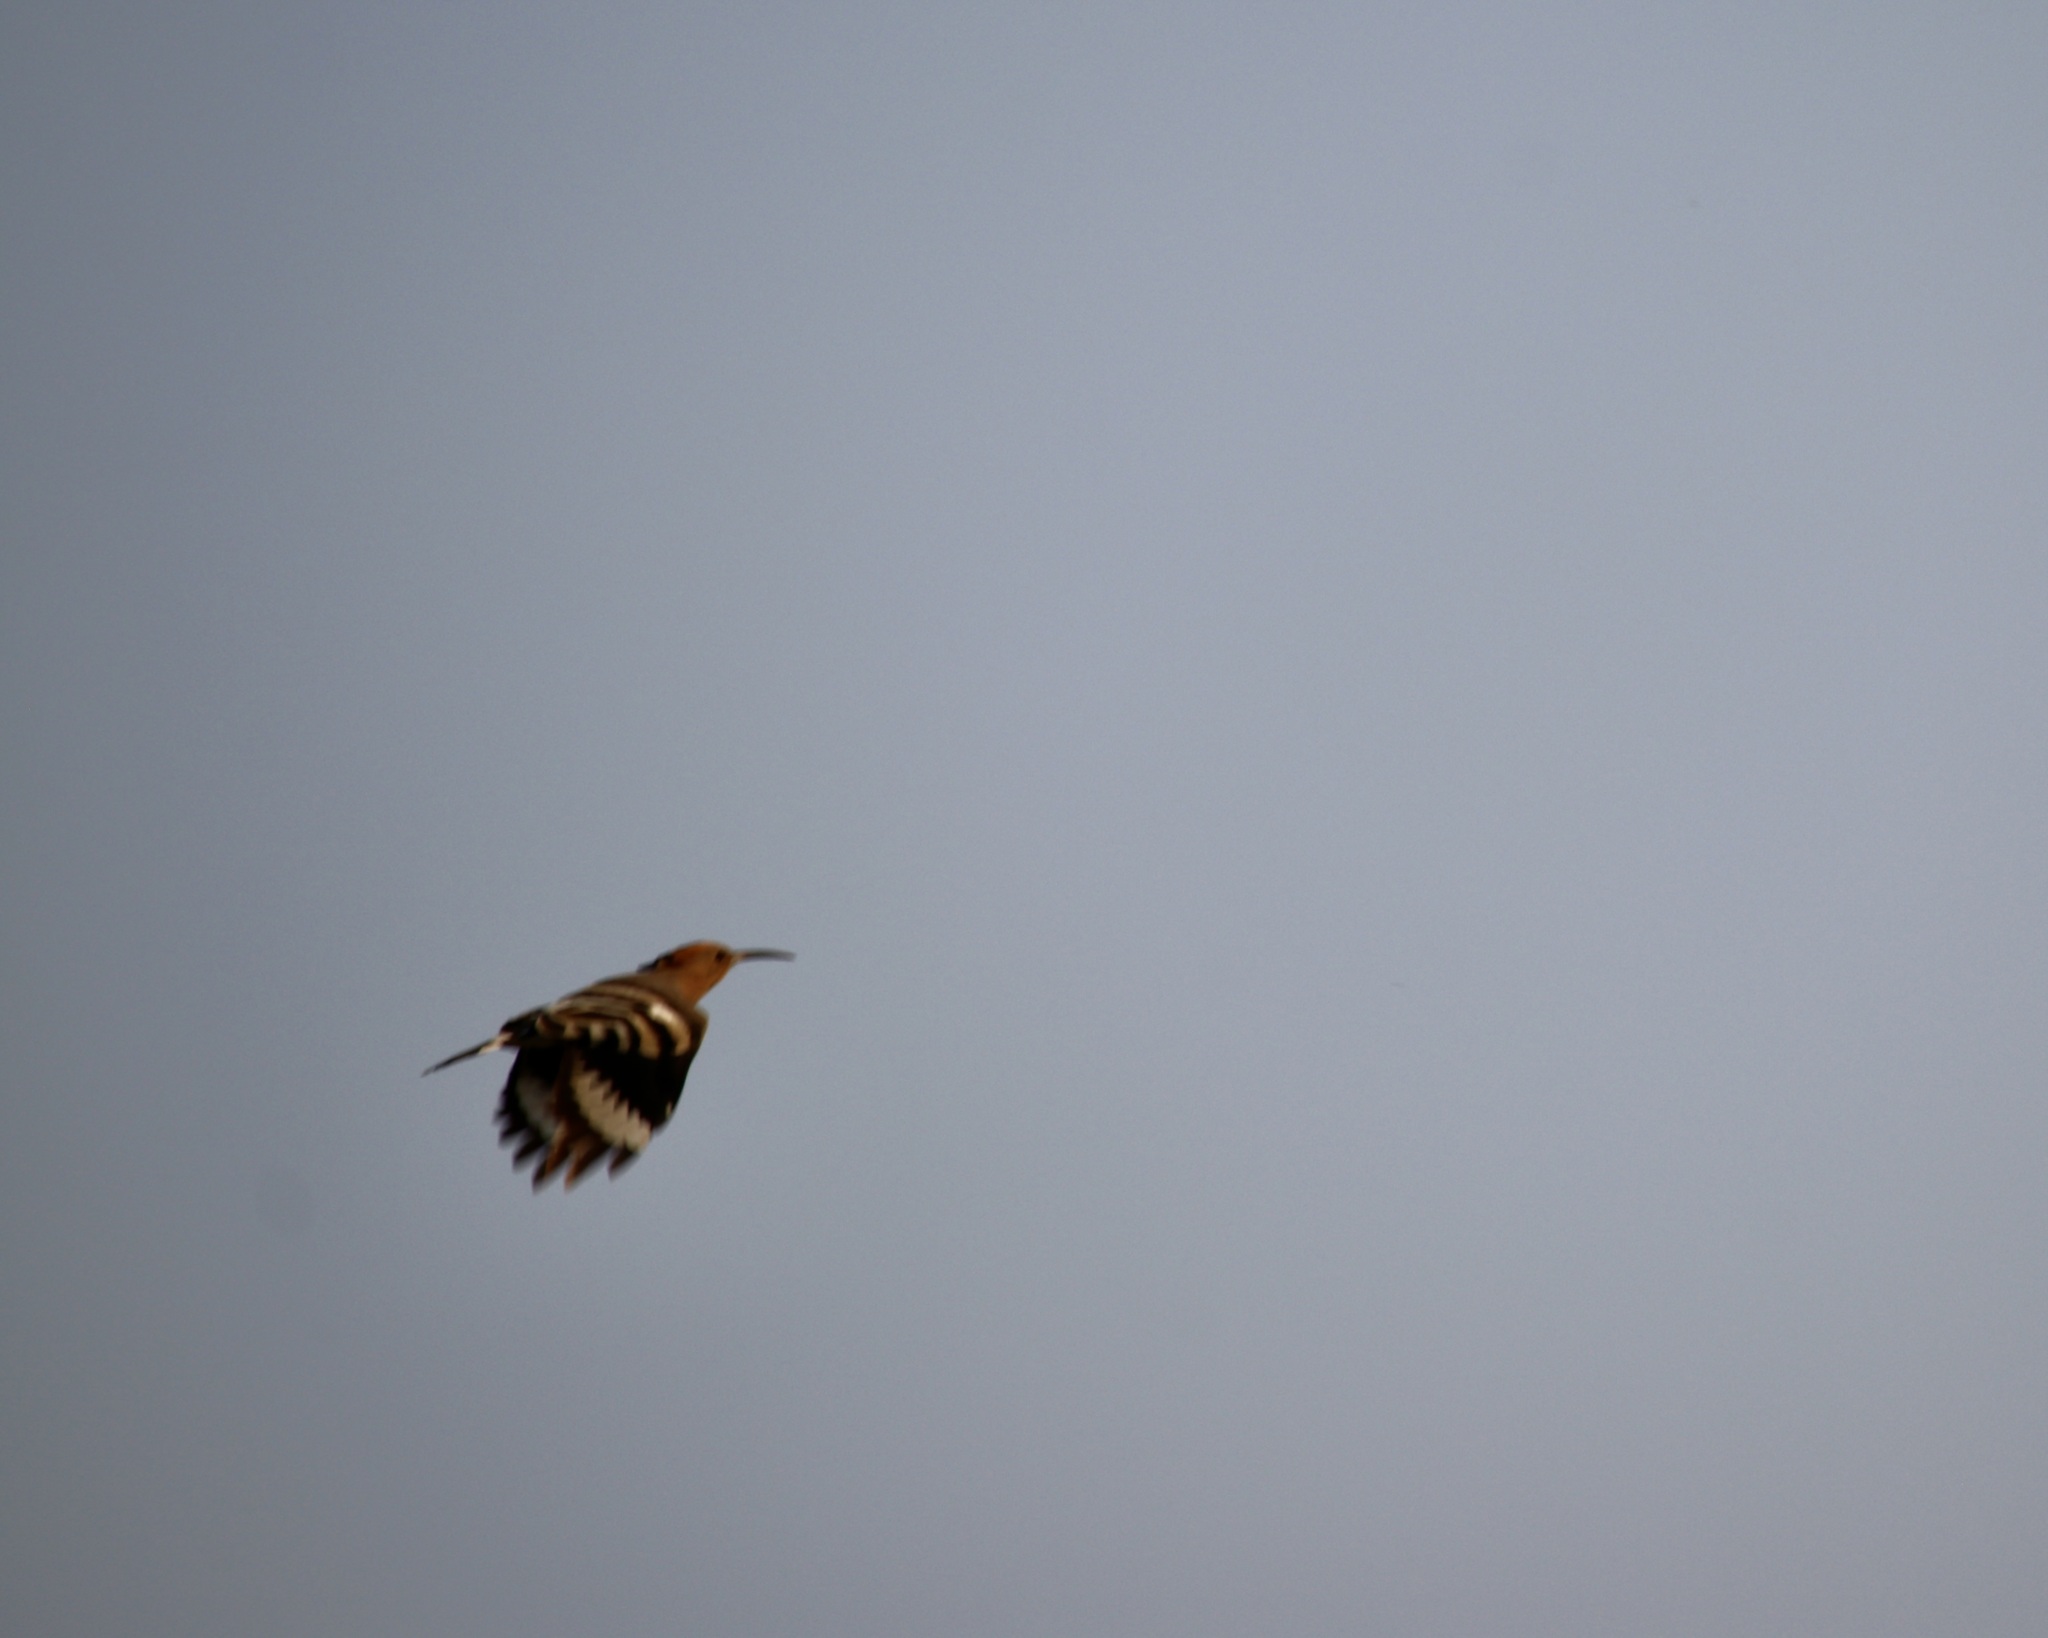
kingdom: Animalia
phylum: Chordata
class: Aves
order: Bucerotiformes
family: Upupidae
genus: Upupa
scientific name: Upupa epops
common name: Eurasian hoopoe
